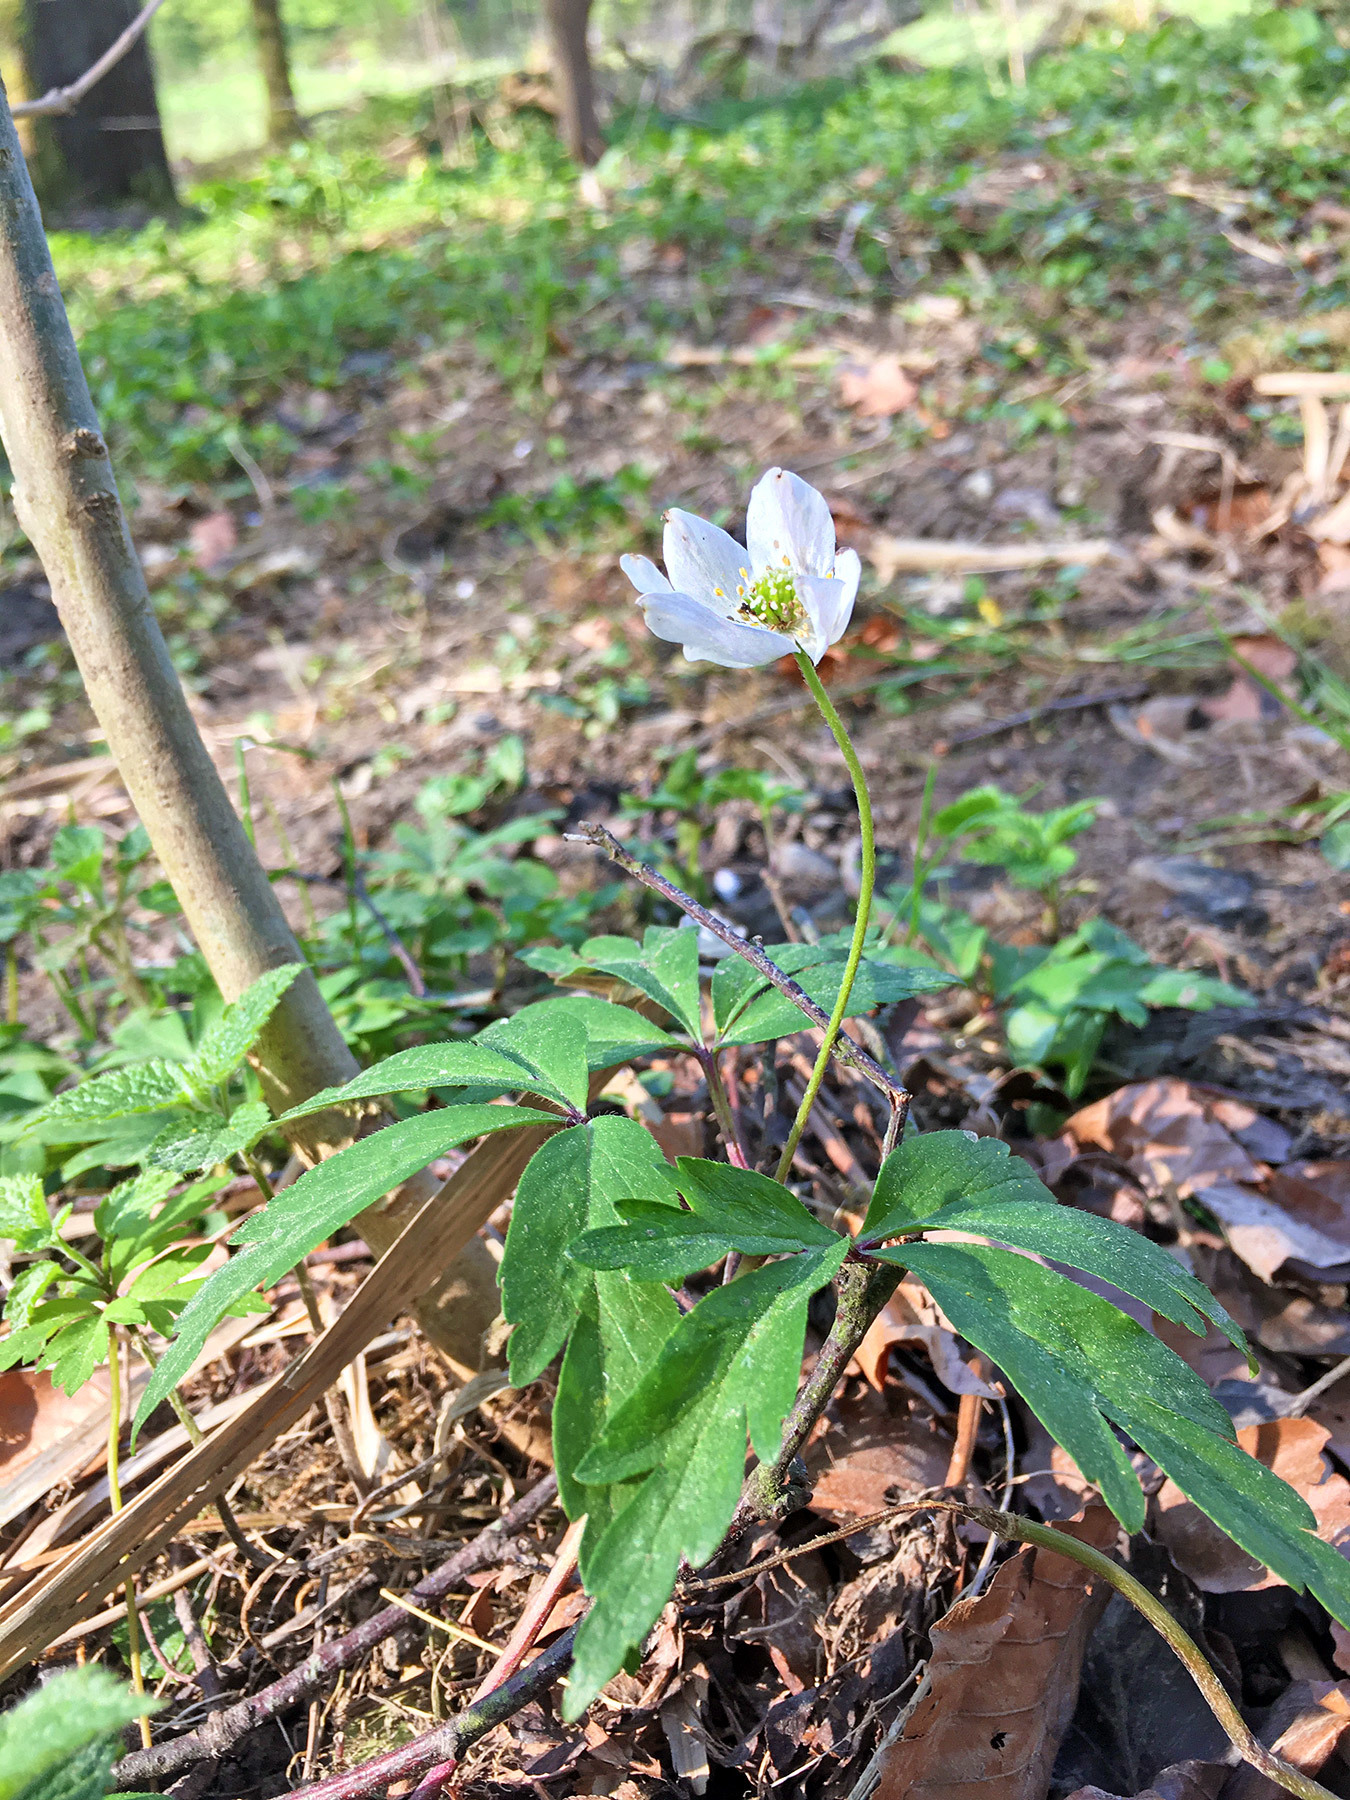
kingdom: Plantae
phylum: Tracheophyta
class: Magnoliopsida
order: Ranunculales
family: Ranunculaceae
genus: Anemone
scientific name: Anemone nemorosa
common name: Wood anemone
